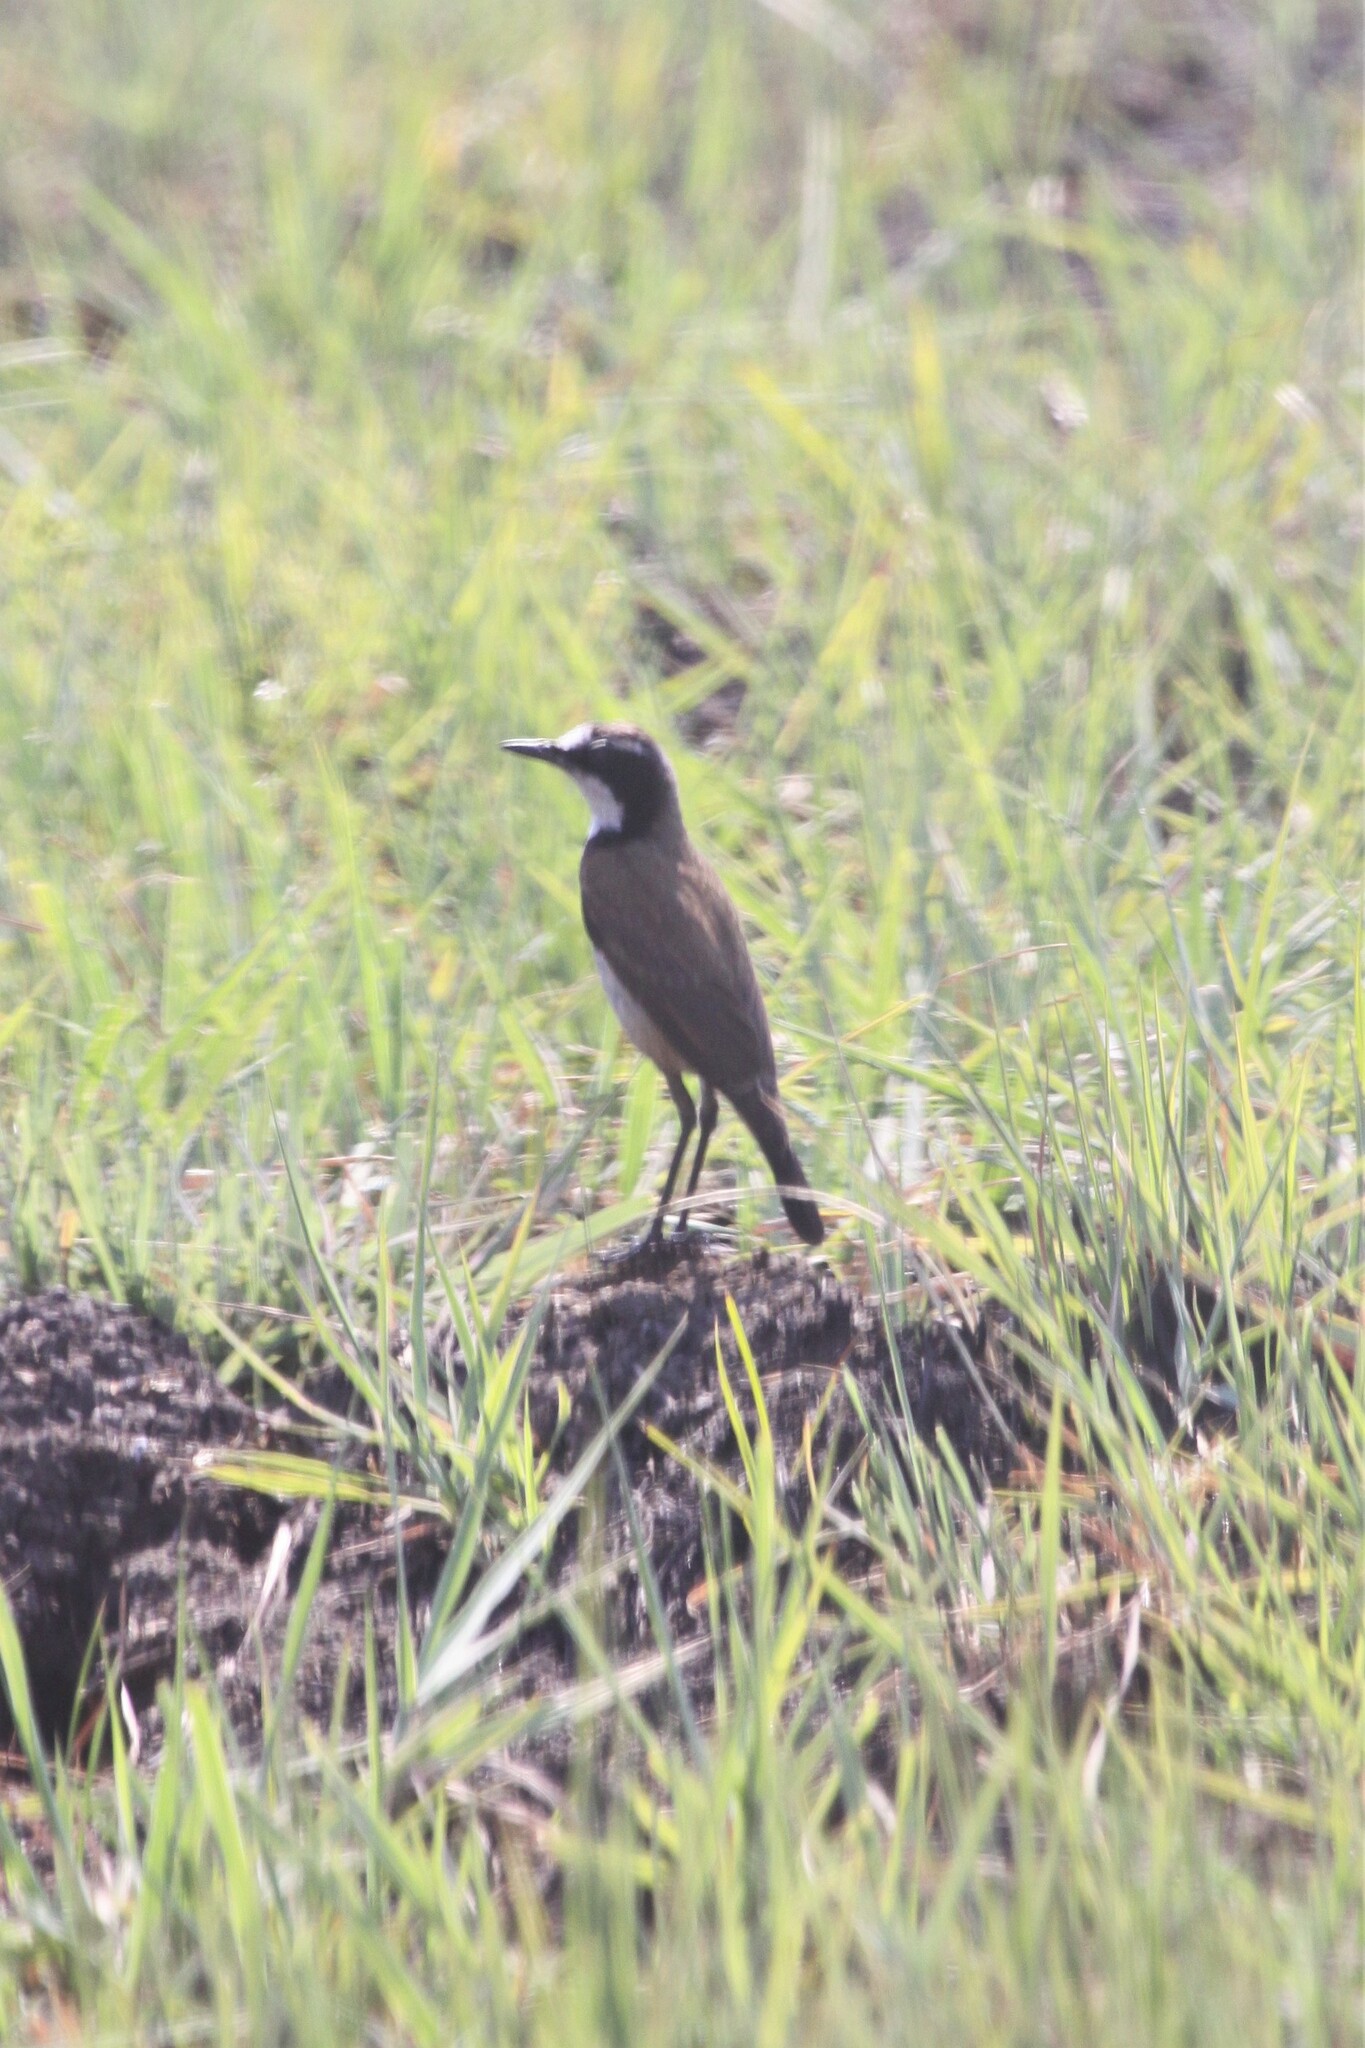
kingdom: Animalia
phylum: Chordata
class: Aves
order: Passeriformes
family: Muscicapidae
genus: Oenanthe
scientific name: Oenanthe pileata
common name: Capped wheatear
